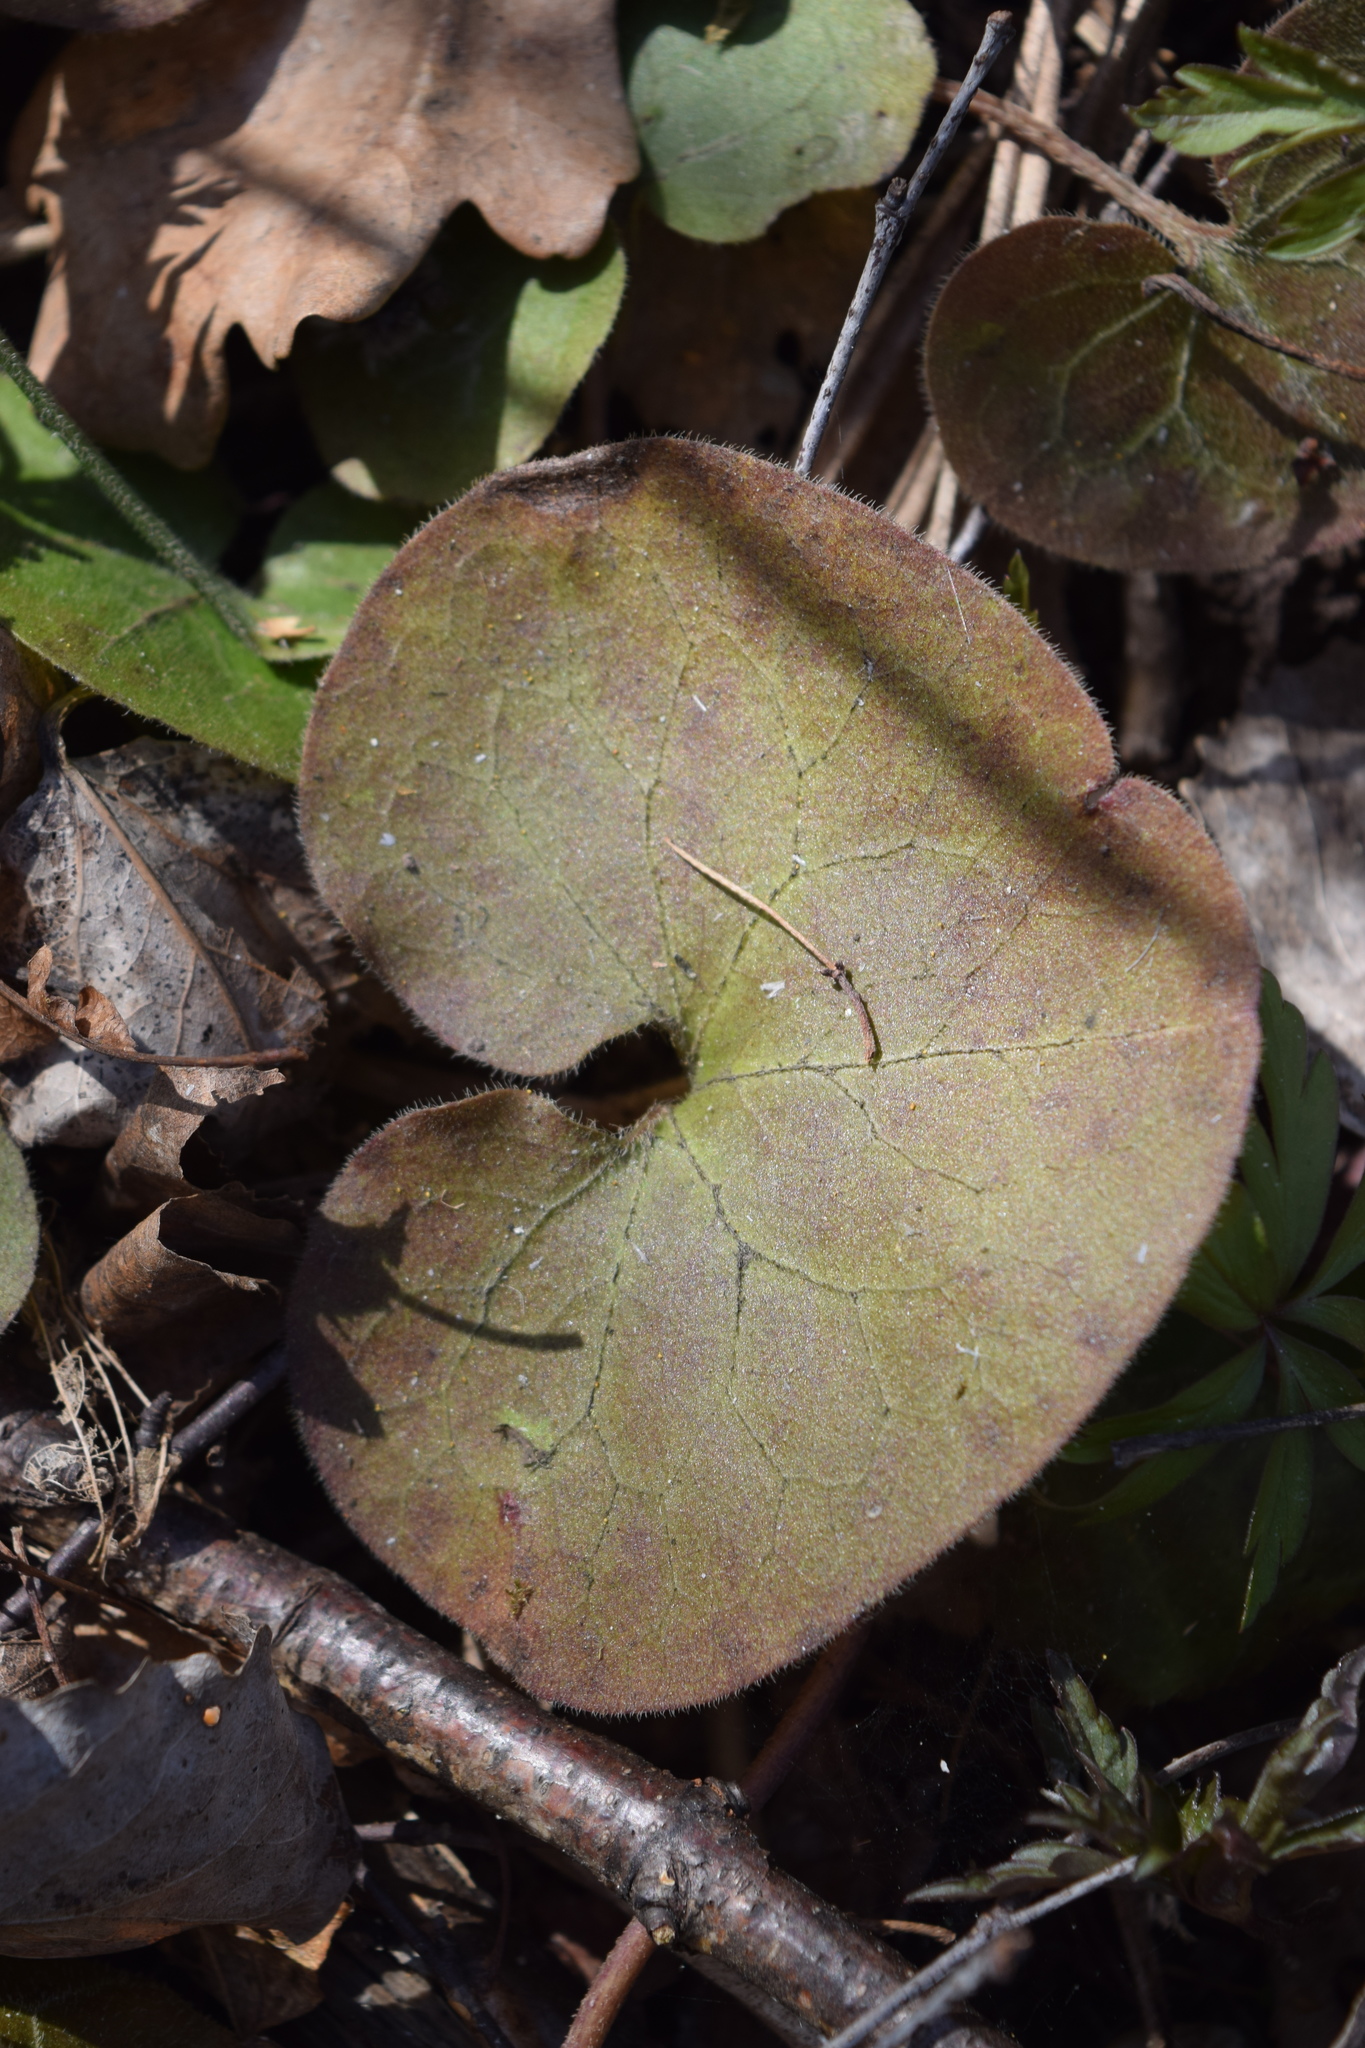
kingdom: Plantae
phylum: Tracheophyta
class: Magnoliopsida
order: Piperales
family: Aristolochiaceae
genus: Asarum
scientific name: Asarum europaeum
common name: Asarabacca
